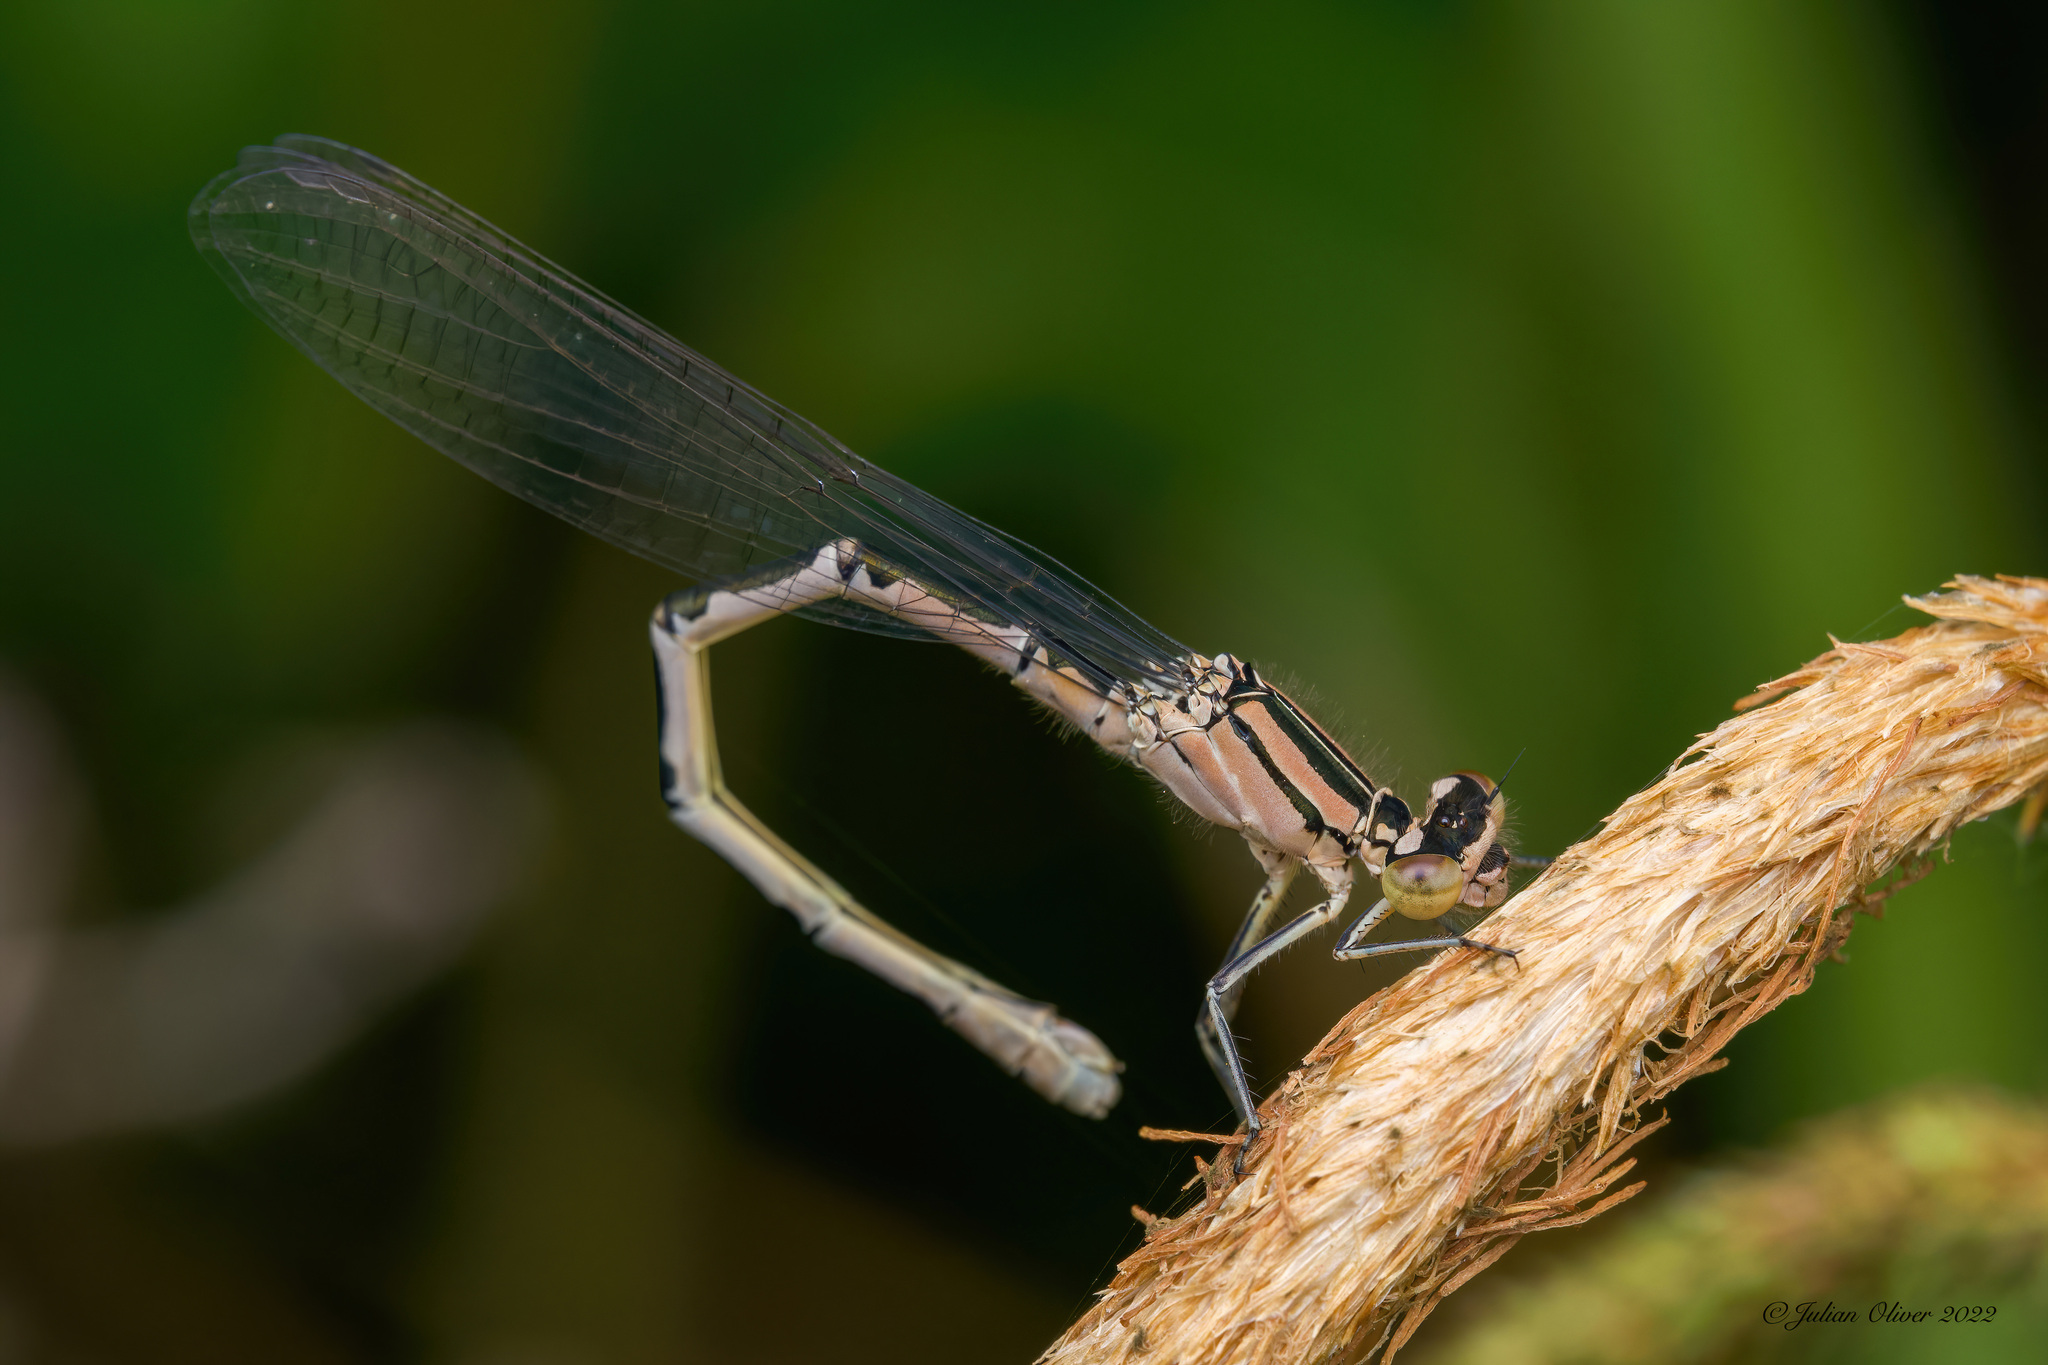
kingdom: Animalia
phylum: Arthropoda
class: Insecta
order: Odonata
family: Coenagrionidae
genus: Enallagma
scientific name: Enallagma cyathigerum
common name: Common blue damselfly
